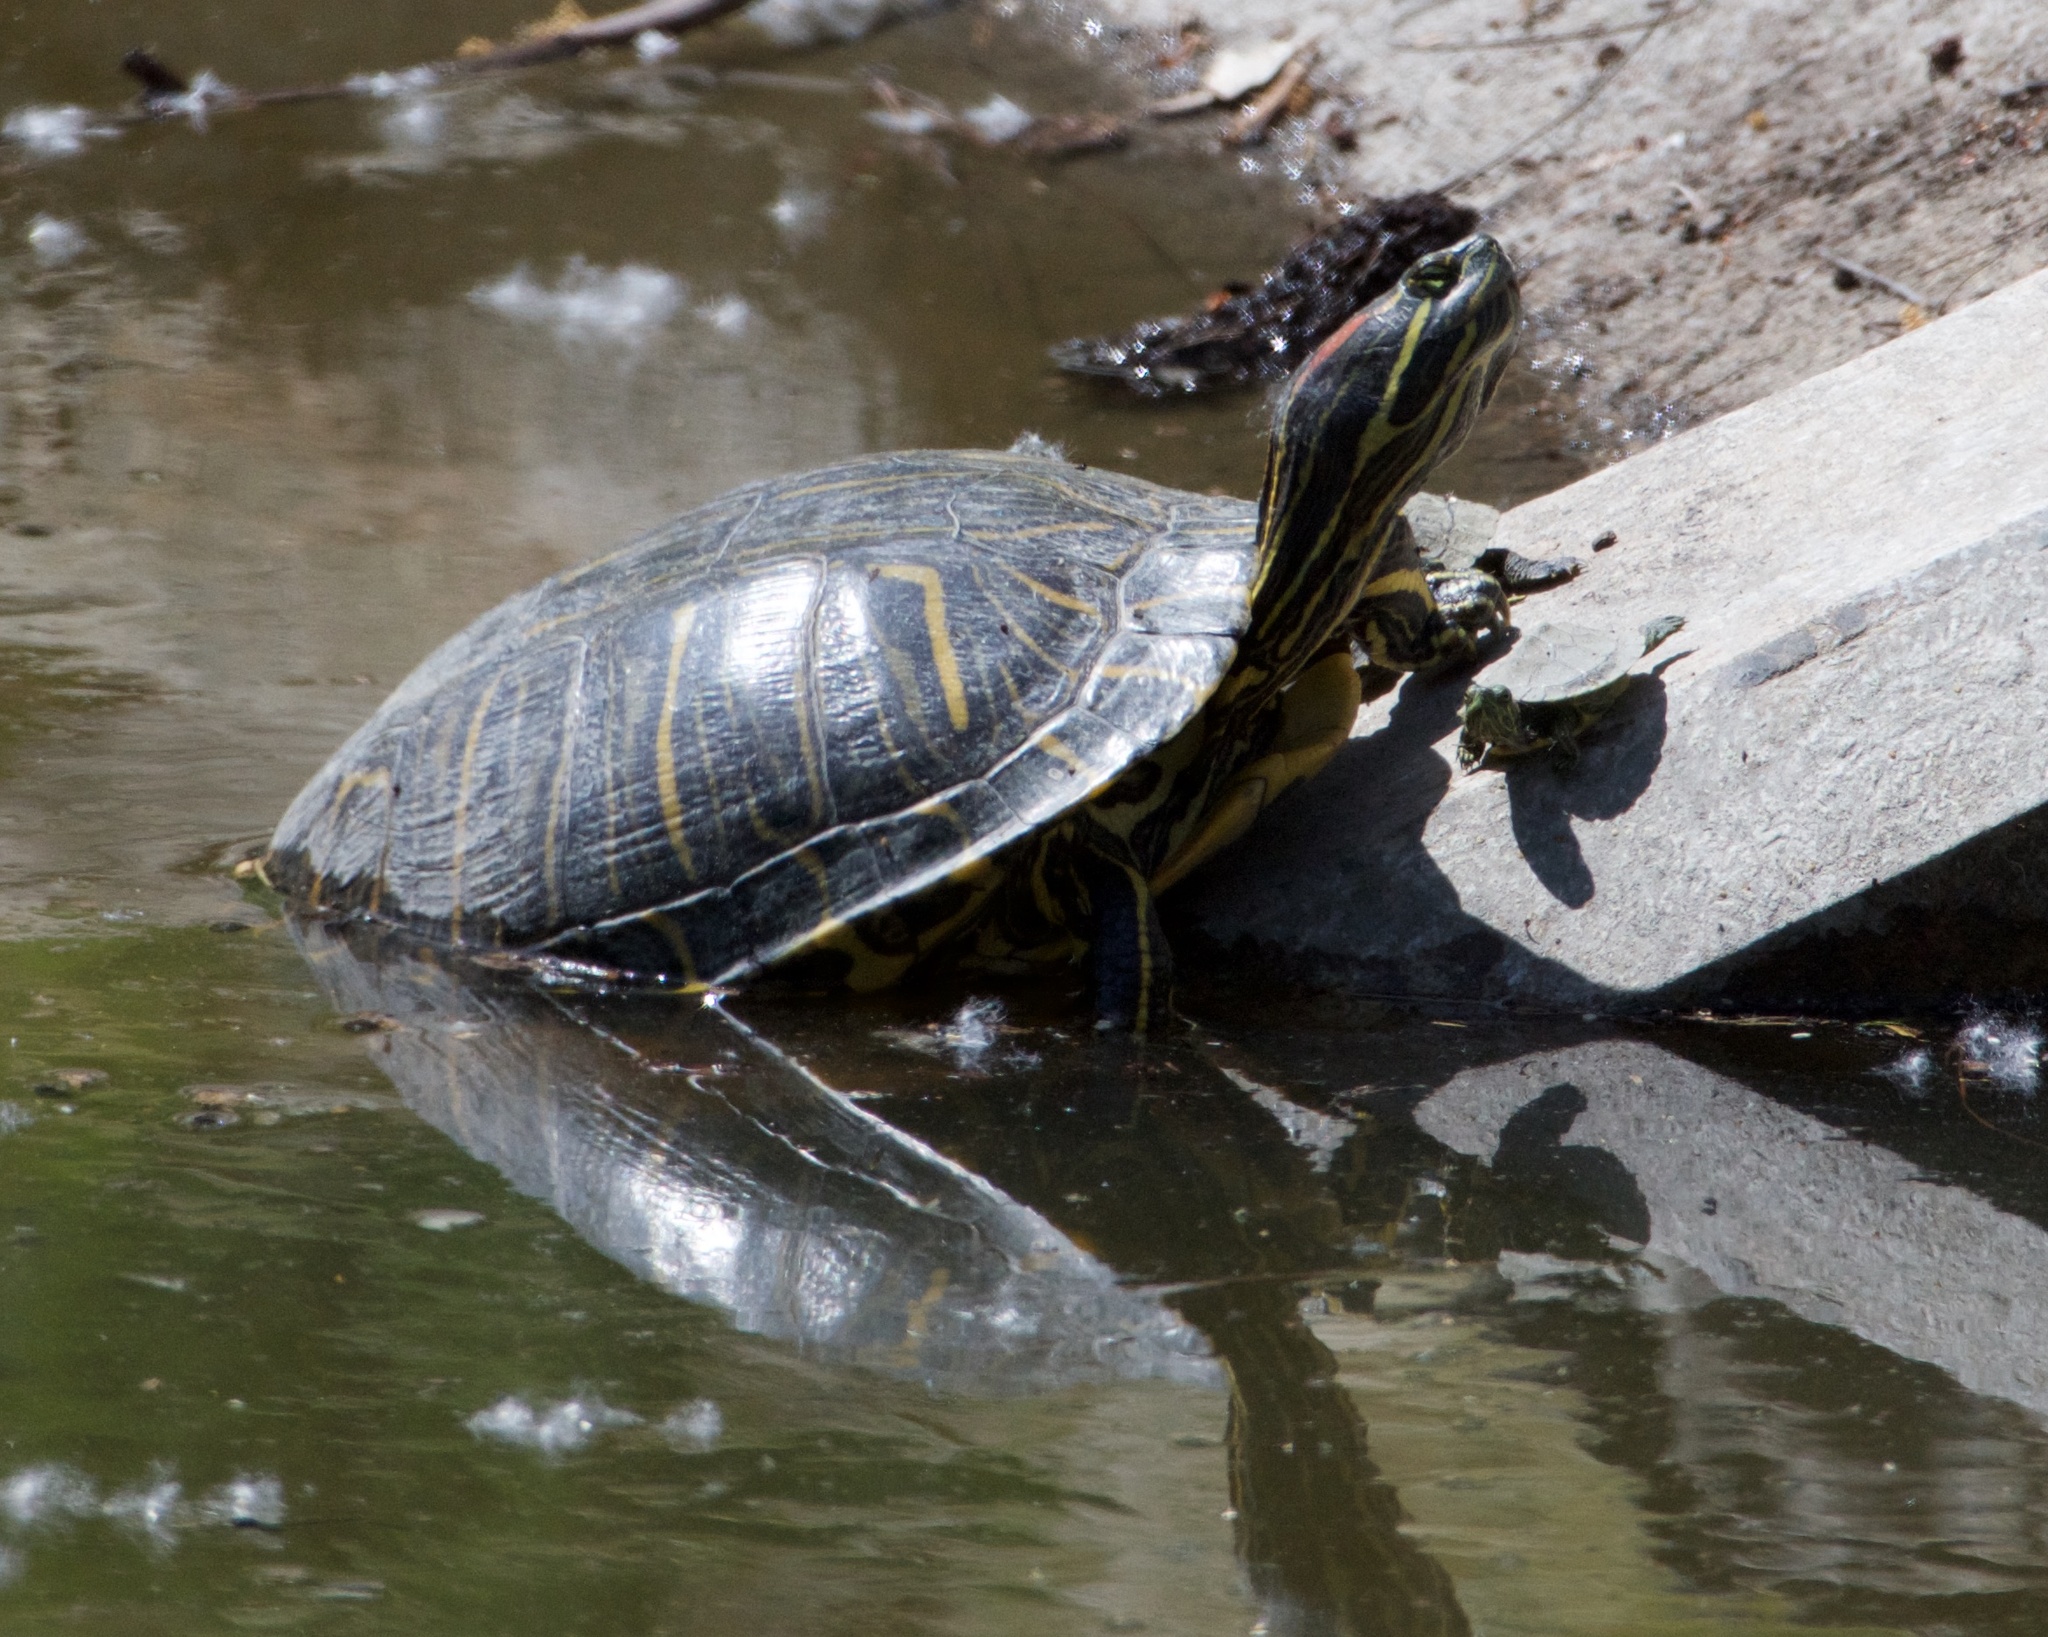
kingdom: Animalia
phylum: Chordata
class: Testudines
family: Emydidae
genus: Trachemys
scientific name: Trachemys scripta
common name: Slider
